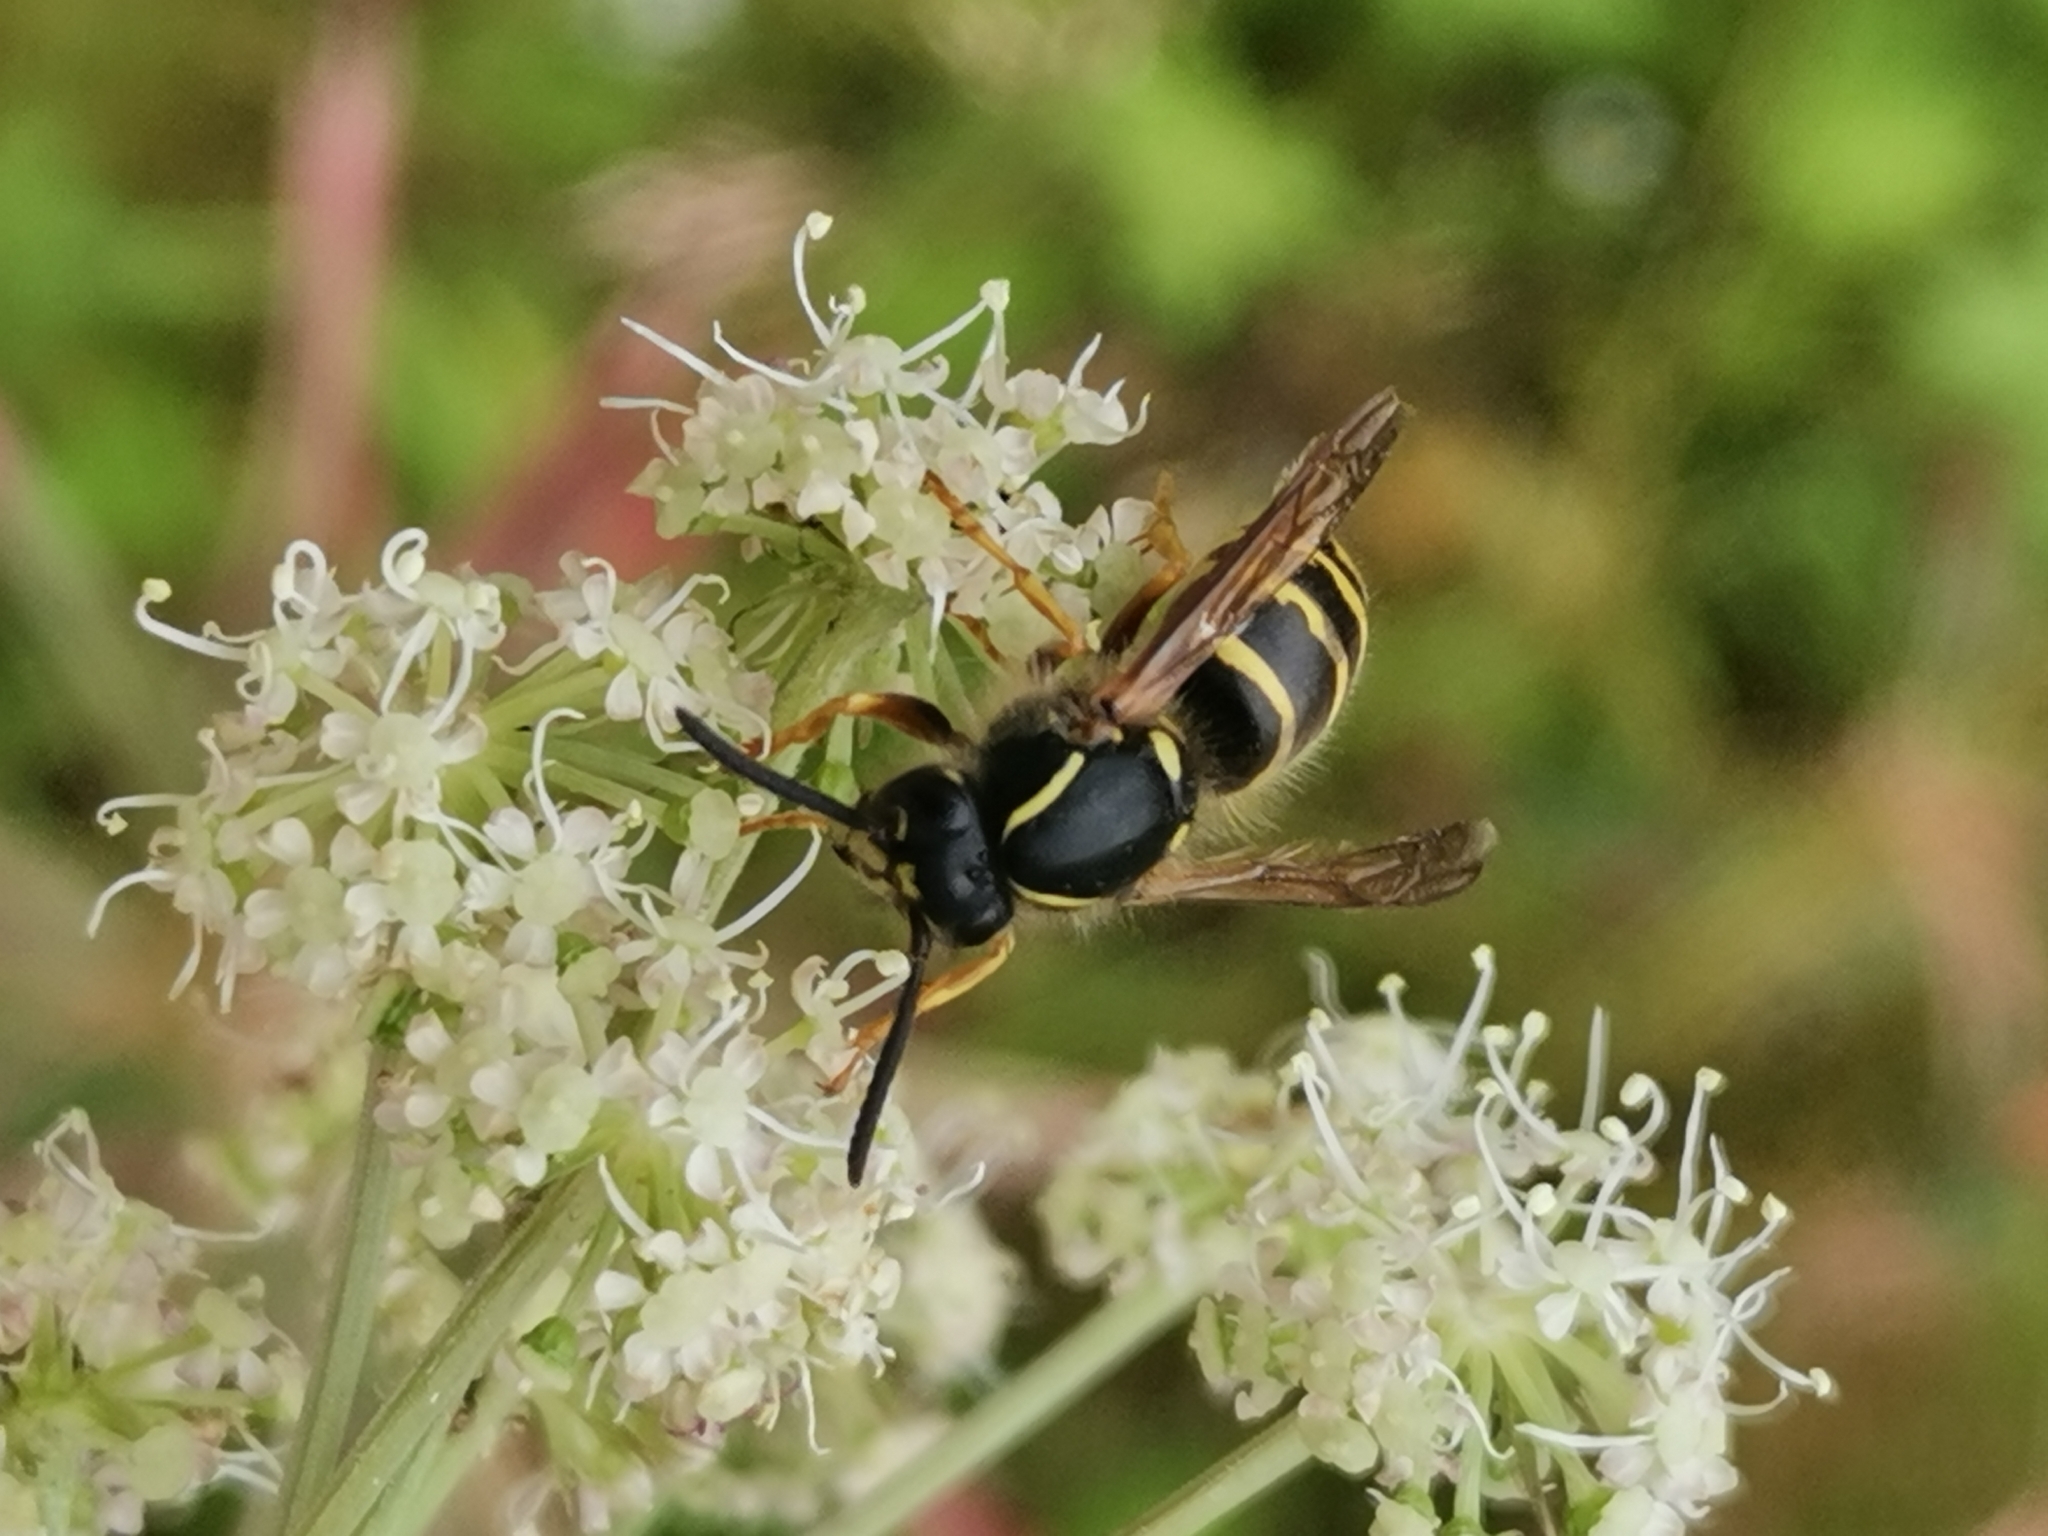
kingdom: Animalia
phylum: Arthropoda
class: Insecta
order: Hymenoptera
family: Vespidae
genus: Dolichovespula
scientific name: Dolichovespula saxonica
